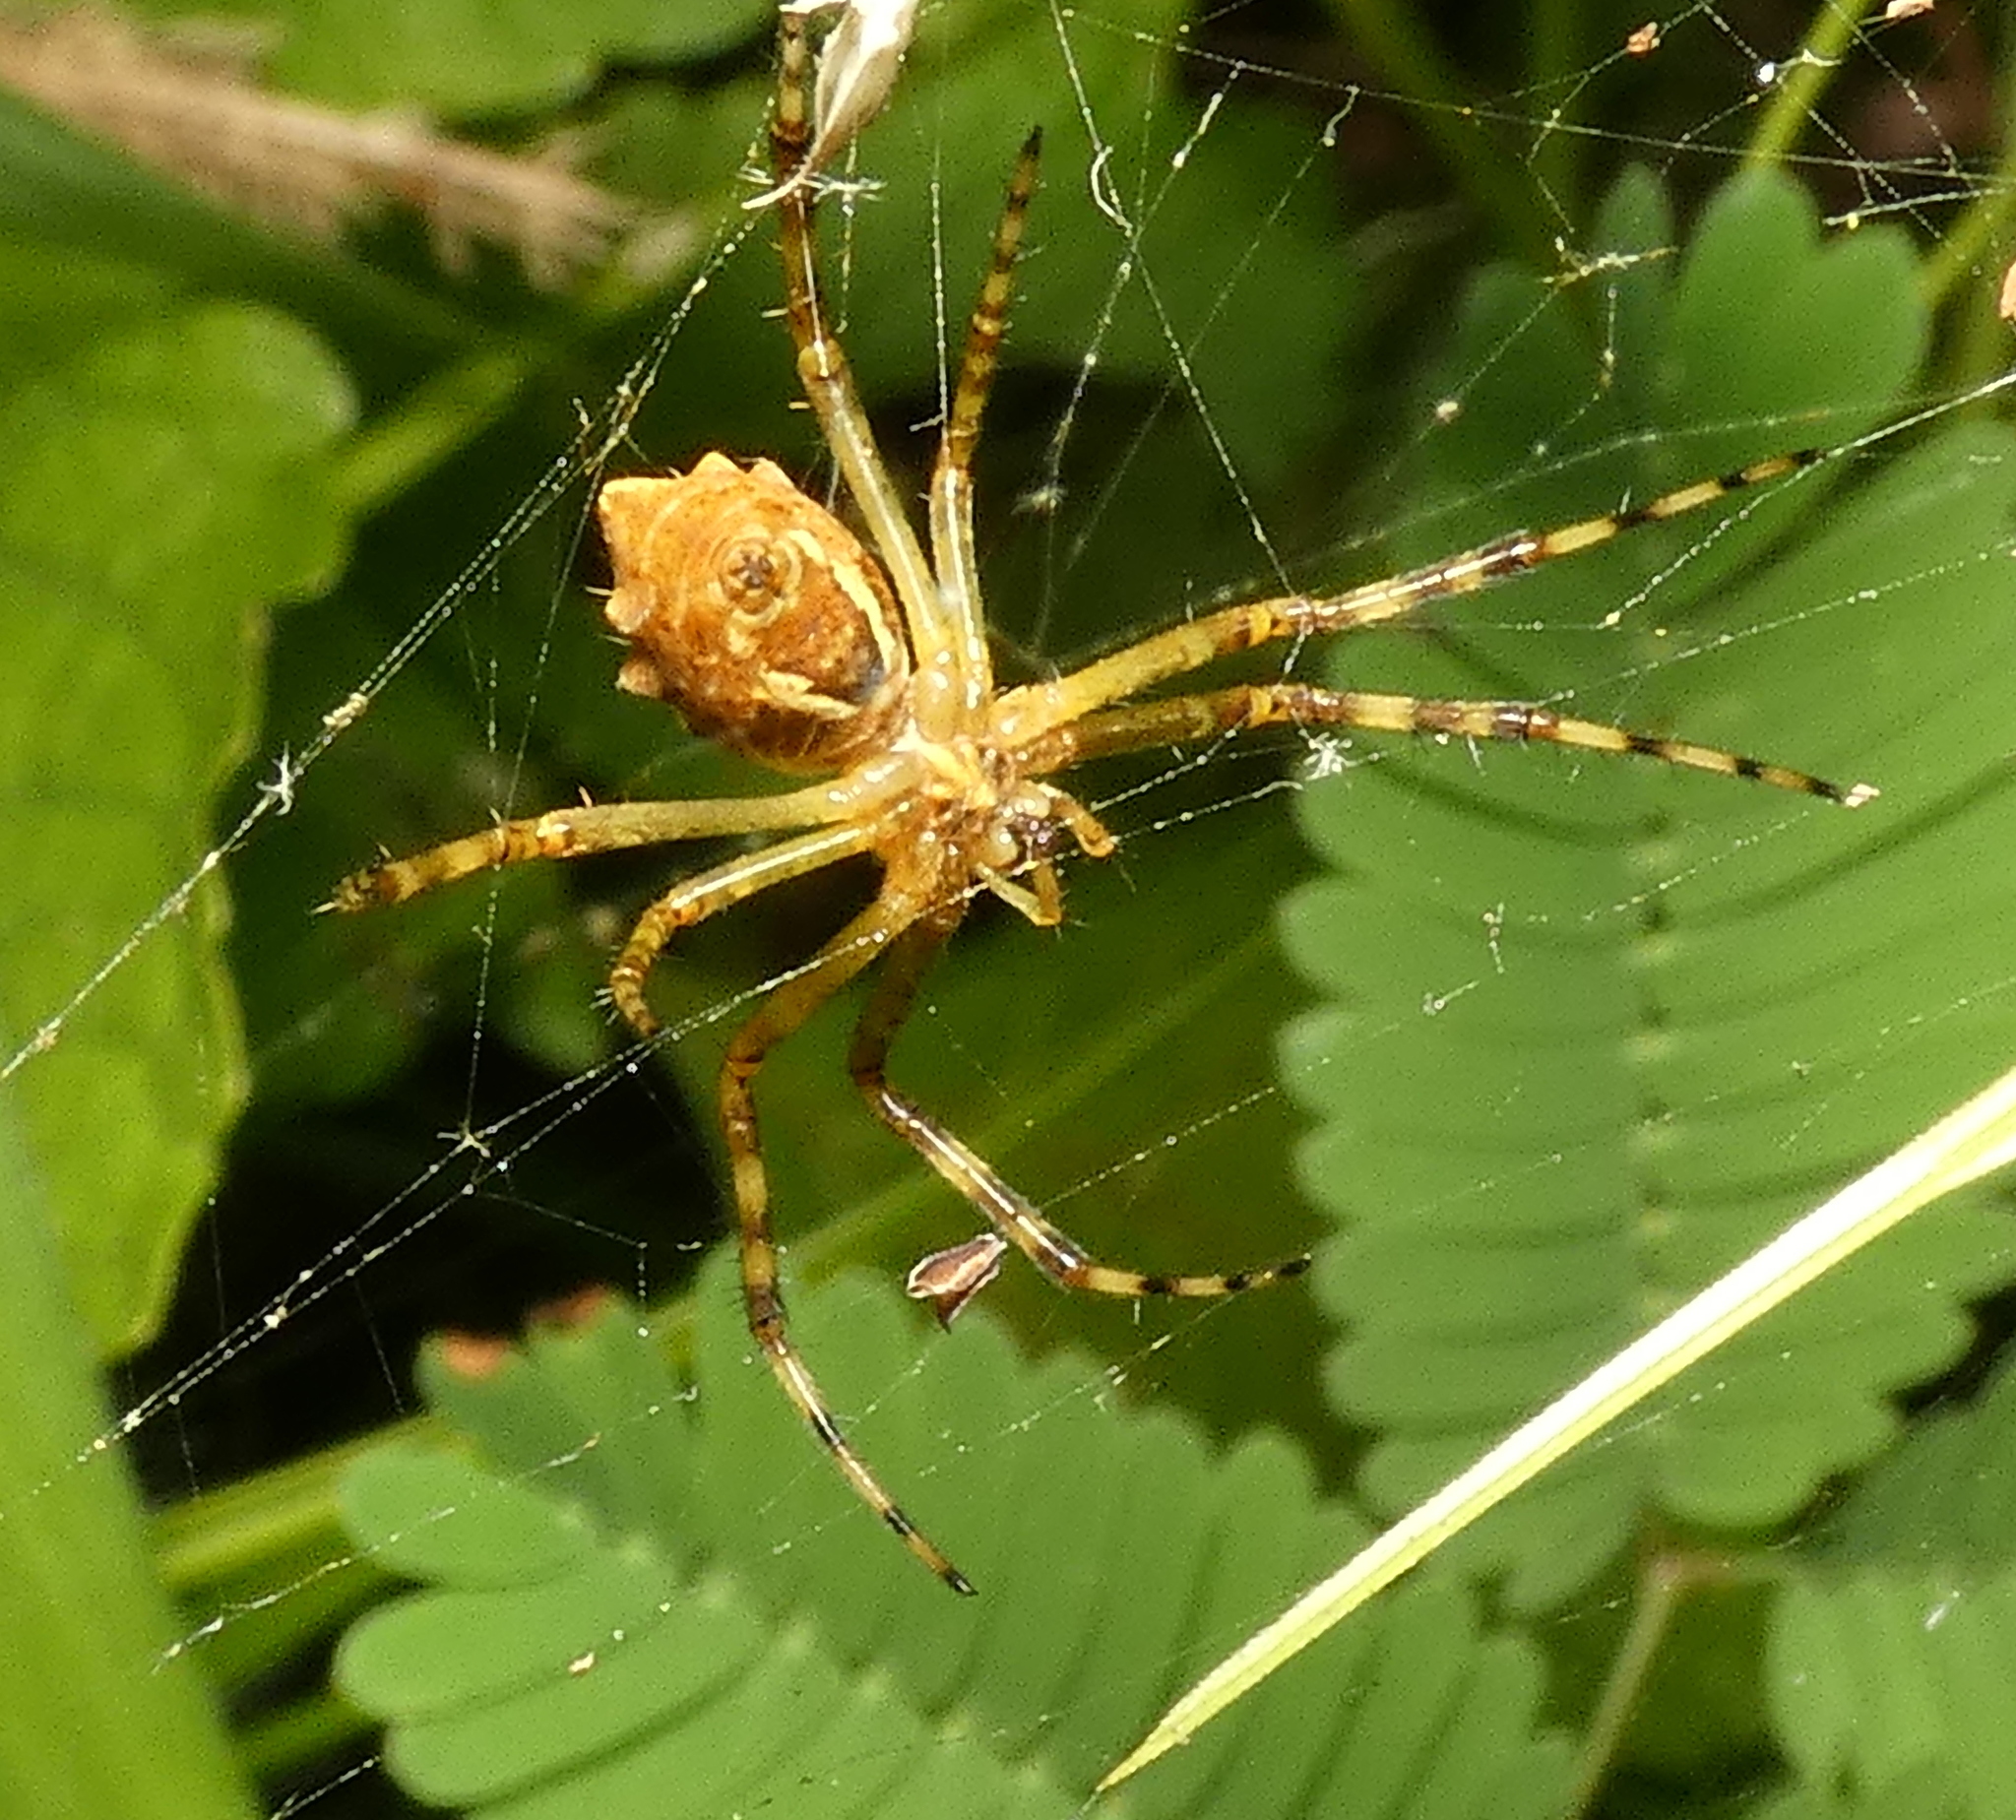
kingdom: Animalia
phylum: Arthropoda
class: Arachnida
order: Araneae
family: Araneidae
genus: Argiope
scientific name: Argiope argentata
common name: Orb weavers
